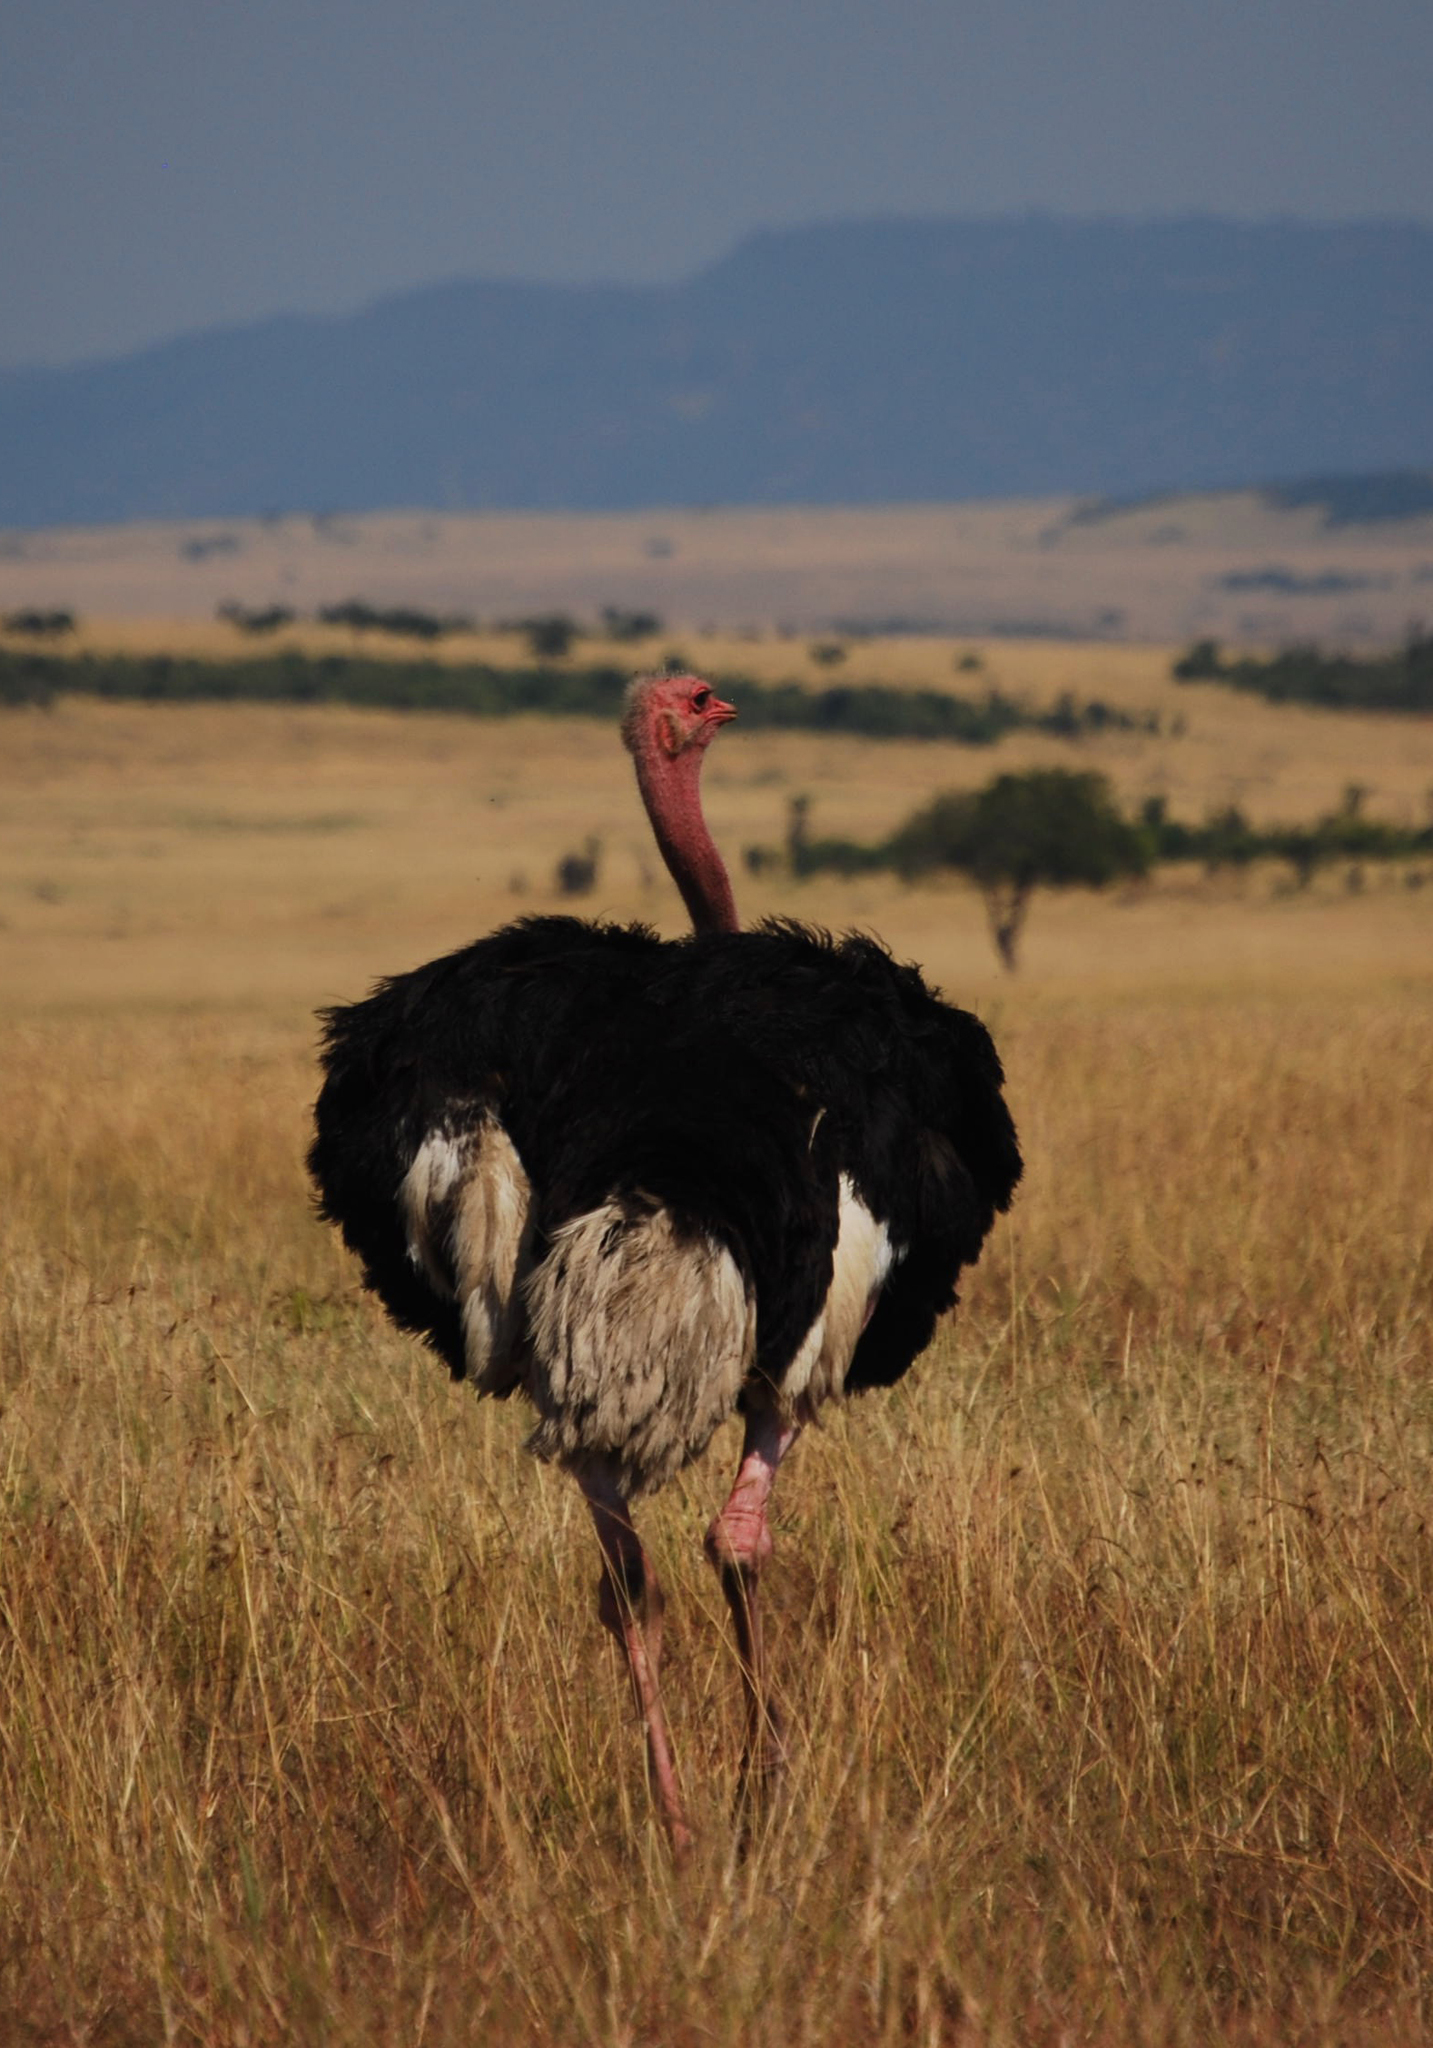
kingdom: Animalia
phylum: Chordata
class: Aves
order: Struthioniformes
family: Struthionidae
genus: Struthio
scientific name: Struthio camelus
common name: Common ostrich
